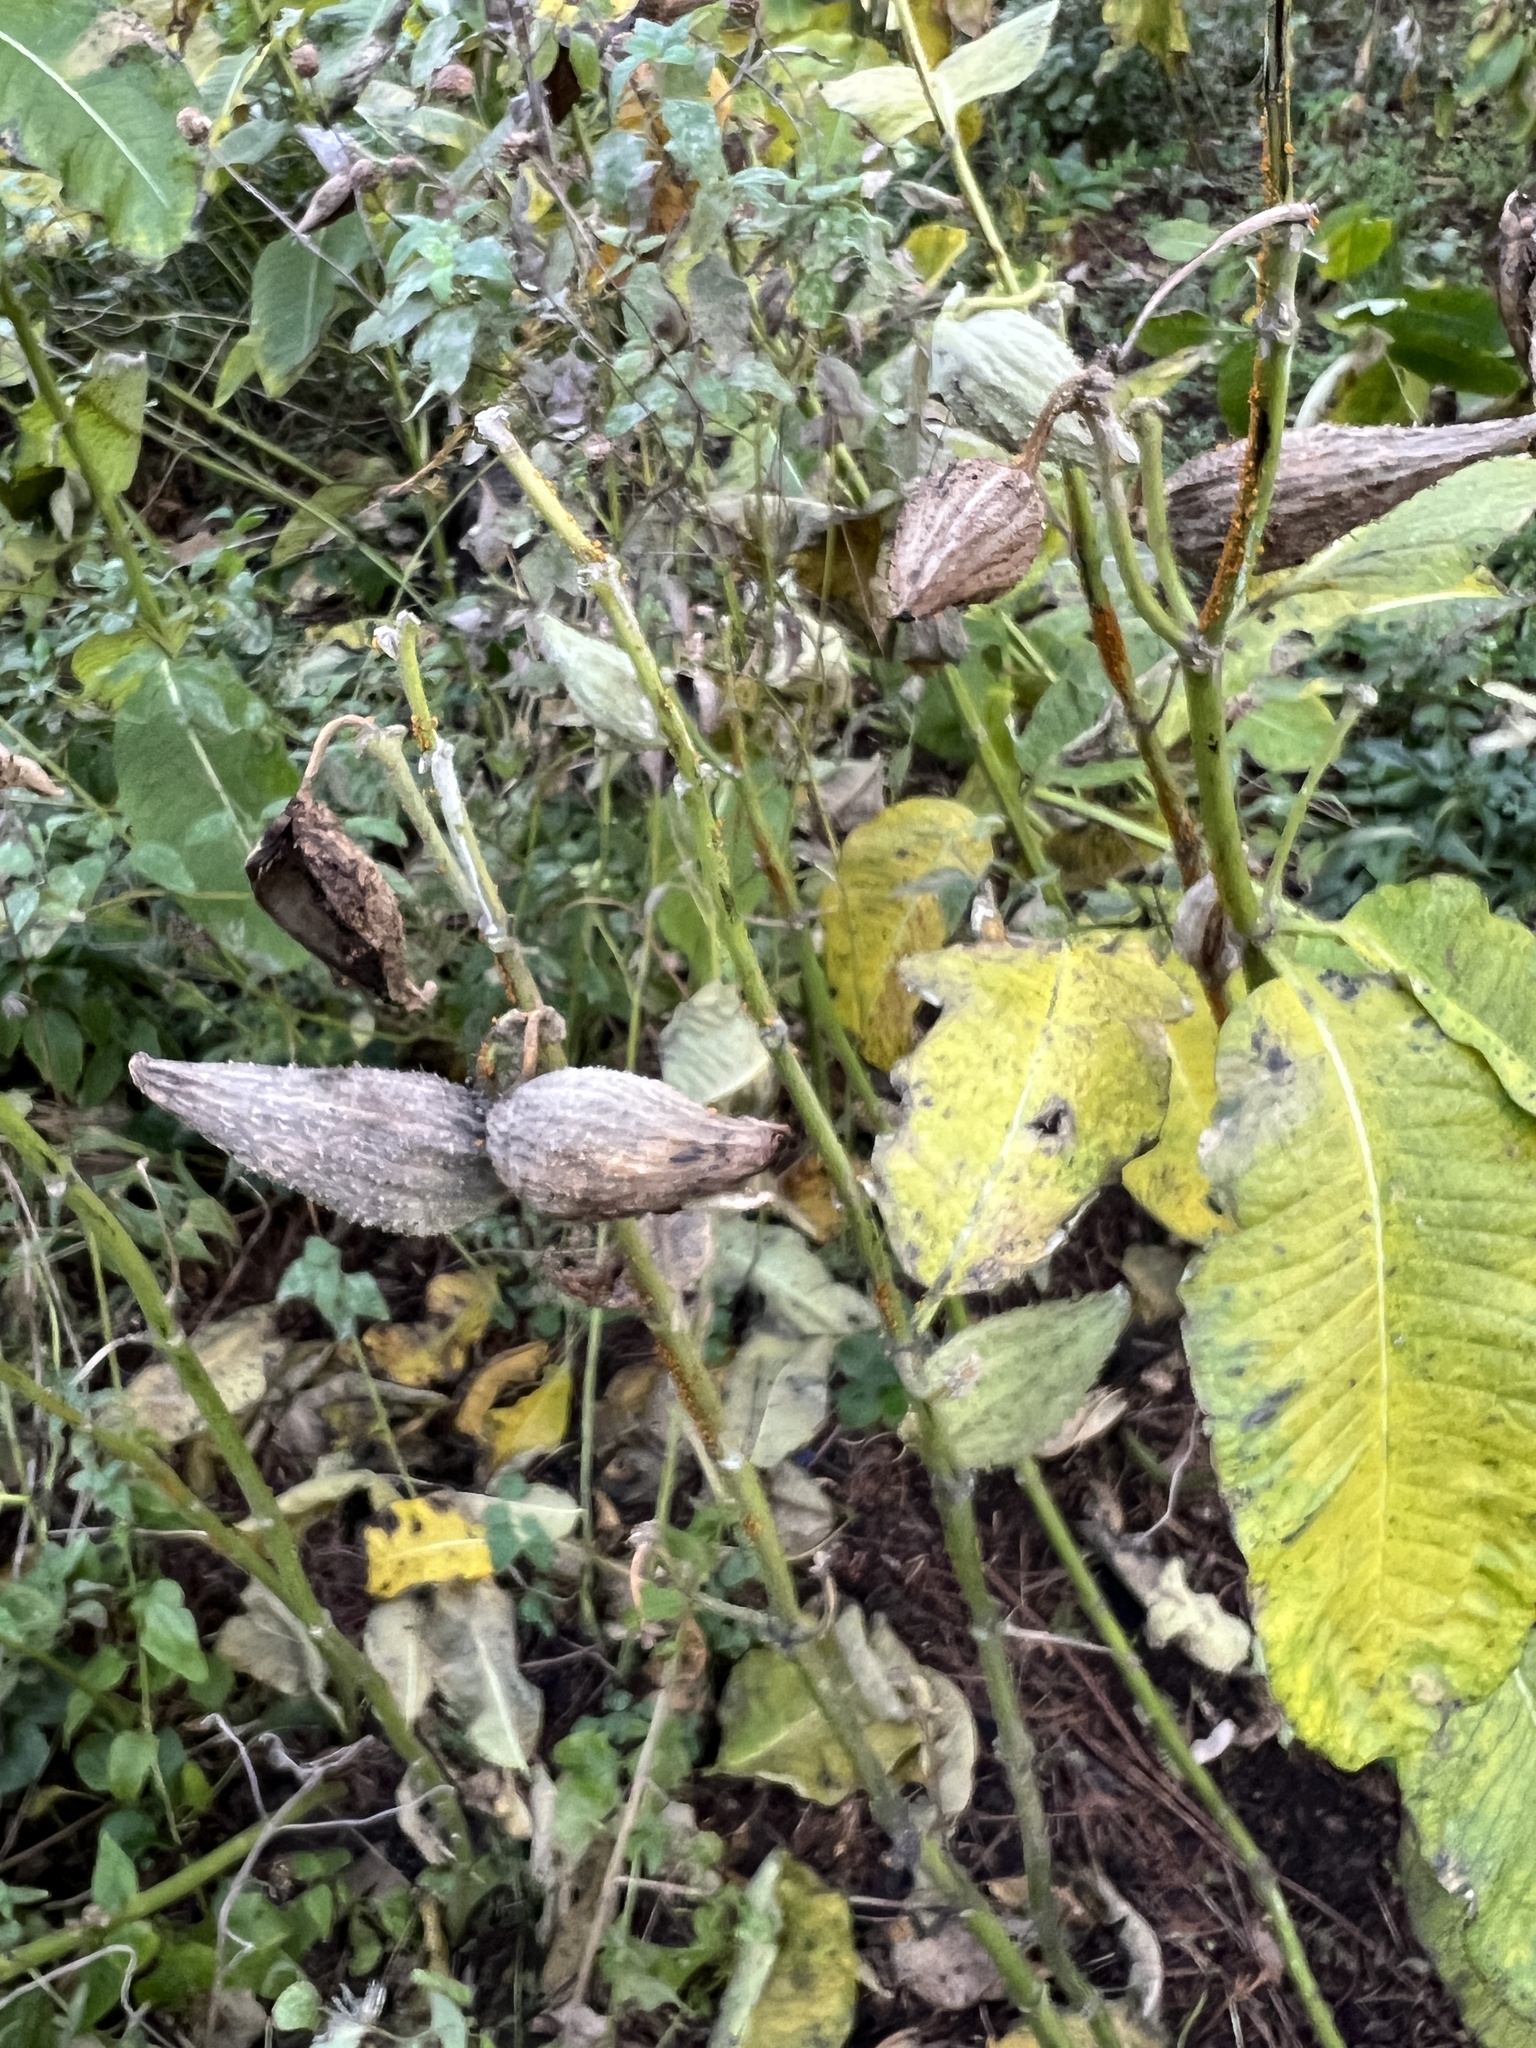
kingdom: Plantae
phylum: Tracheophyta
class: Magnoliopsida
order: Gentianales
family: Apocynaceae
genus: Asclepias
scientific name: Asclepias syriaca
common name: Common milkweed
